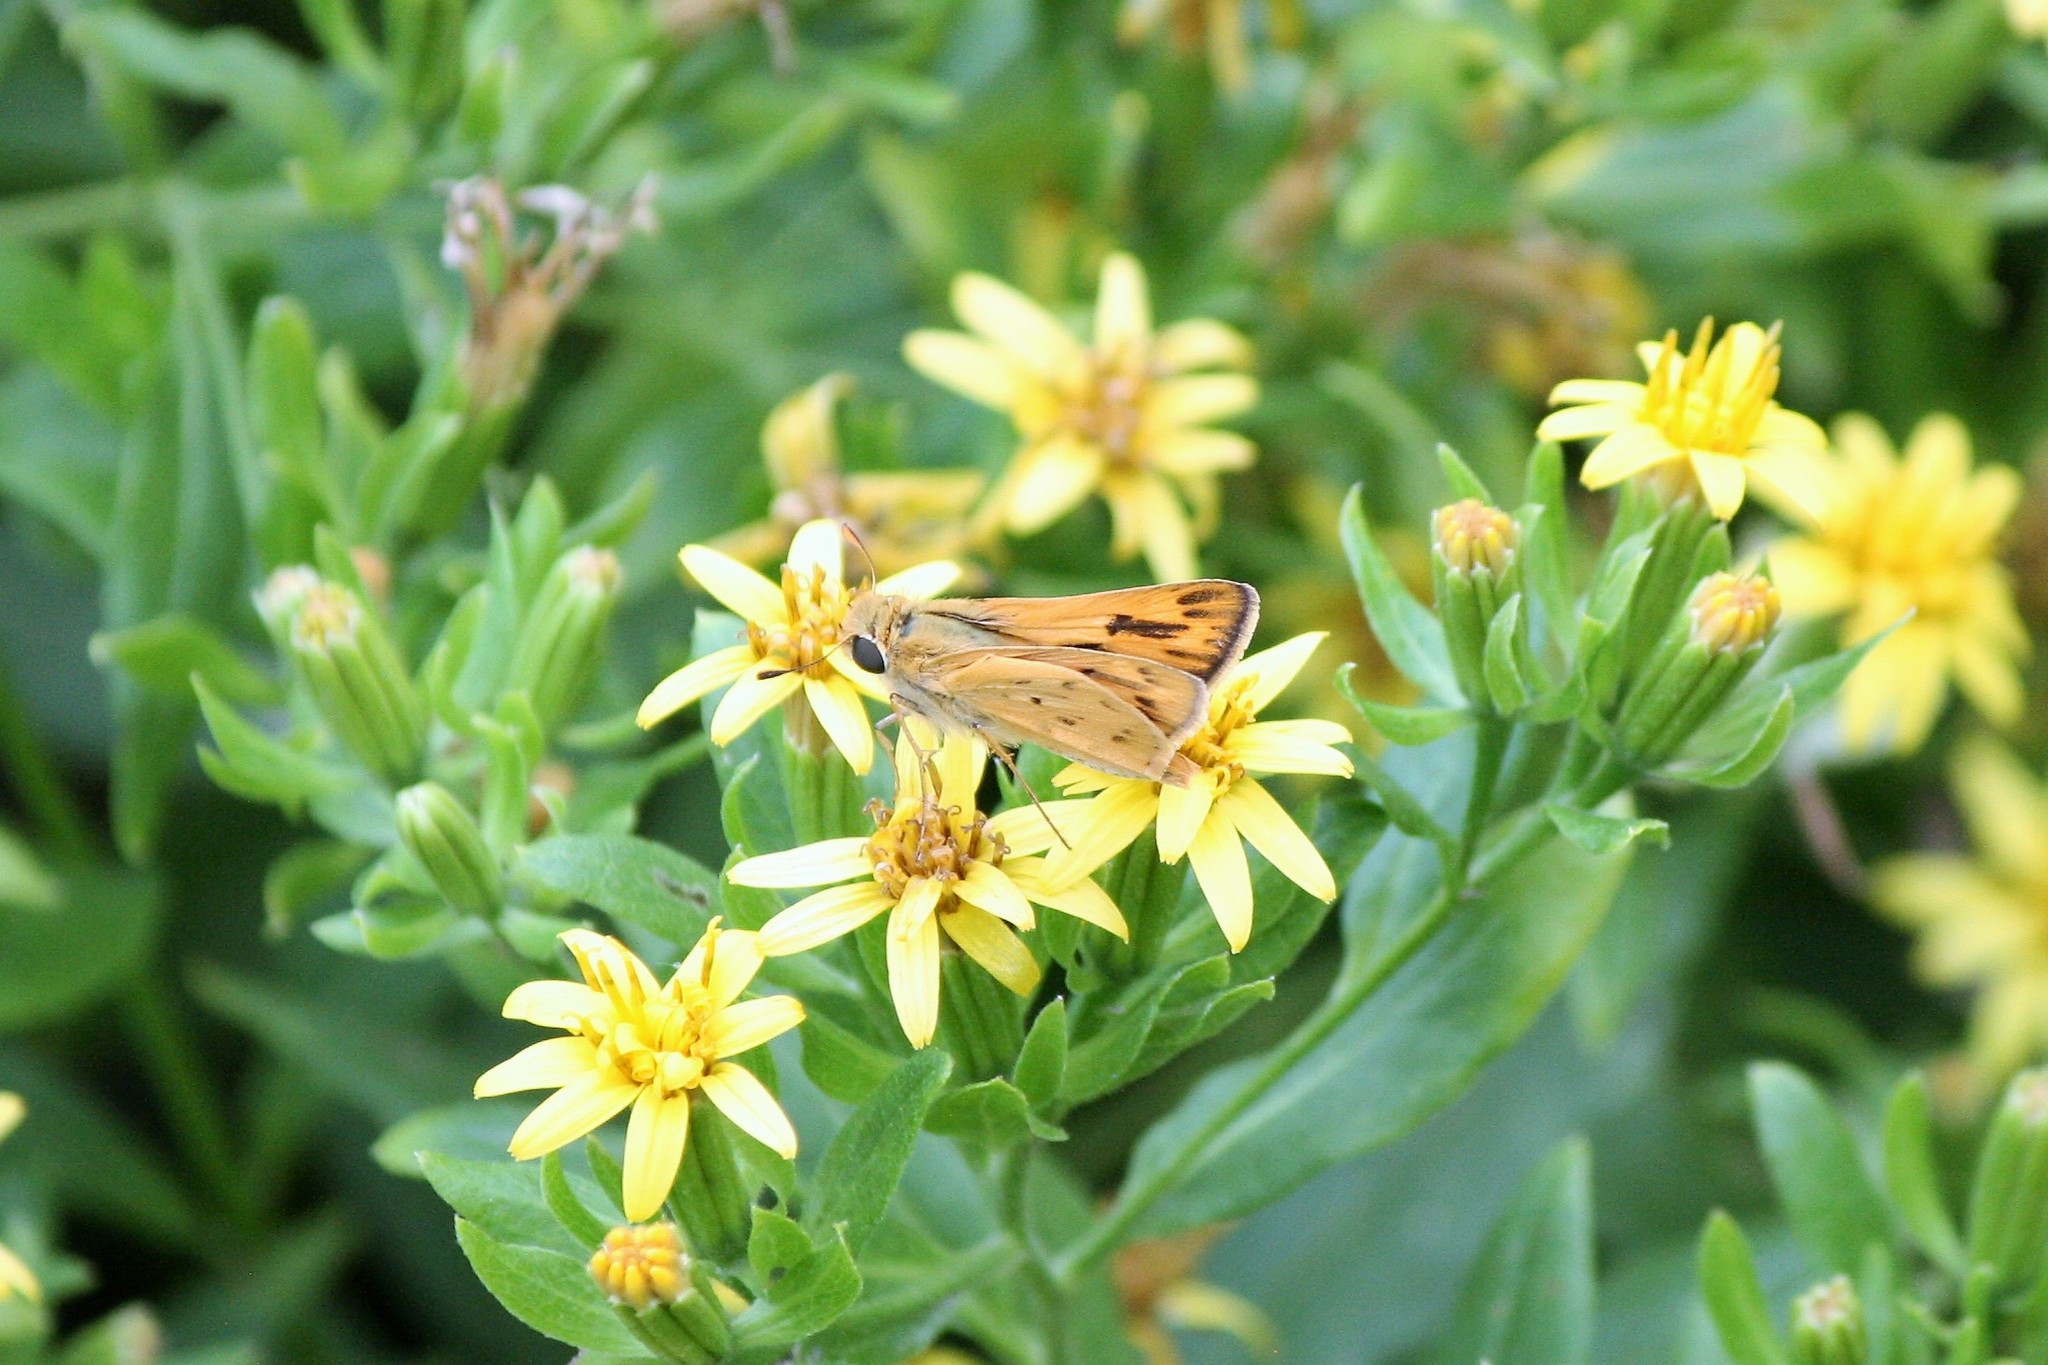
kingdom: Animalia
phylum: Arthropoda
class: Insecta
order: Lepidoptera
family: Hesperiidae
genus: Hylephila
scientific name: Hylephila phyleus
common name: Fiery skipper
